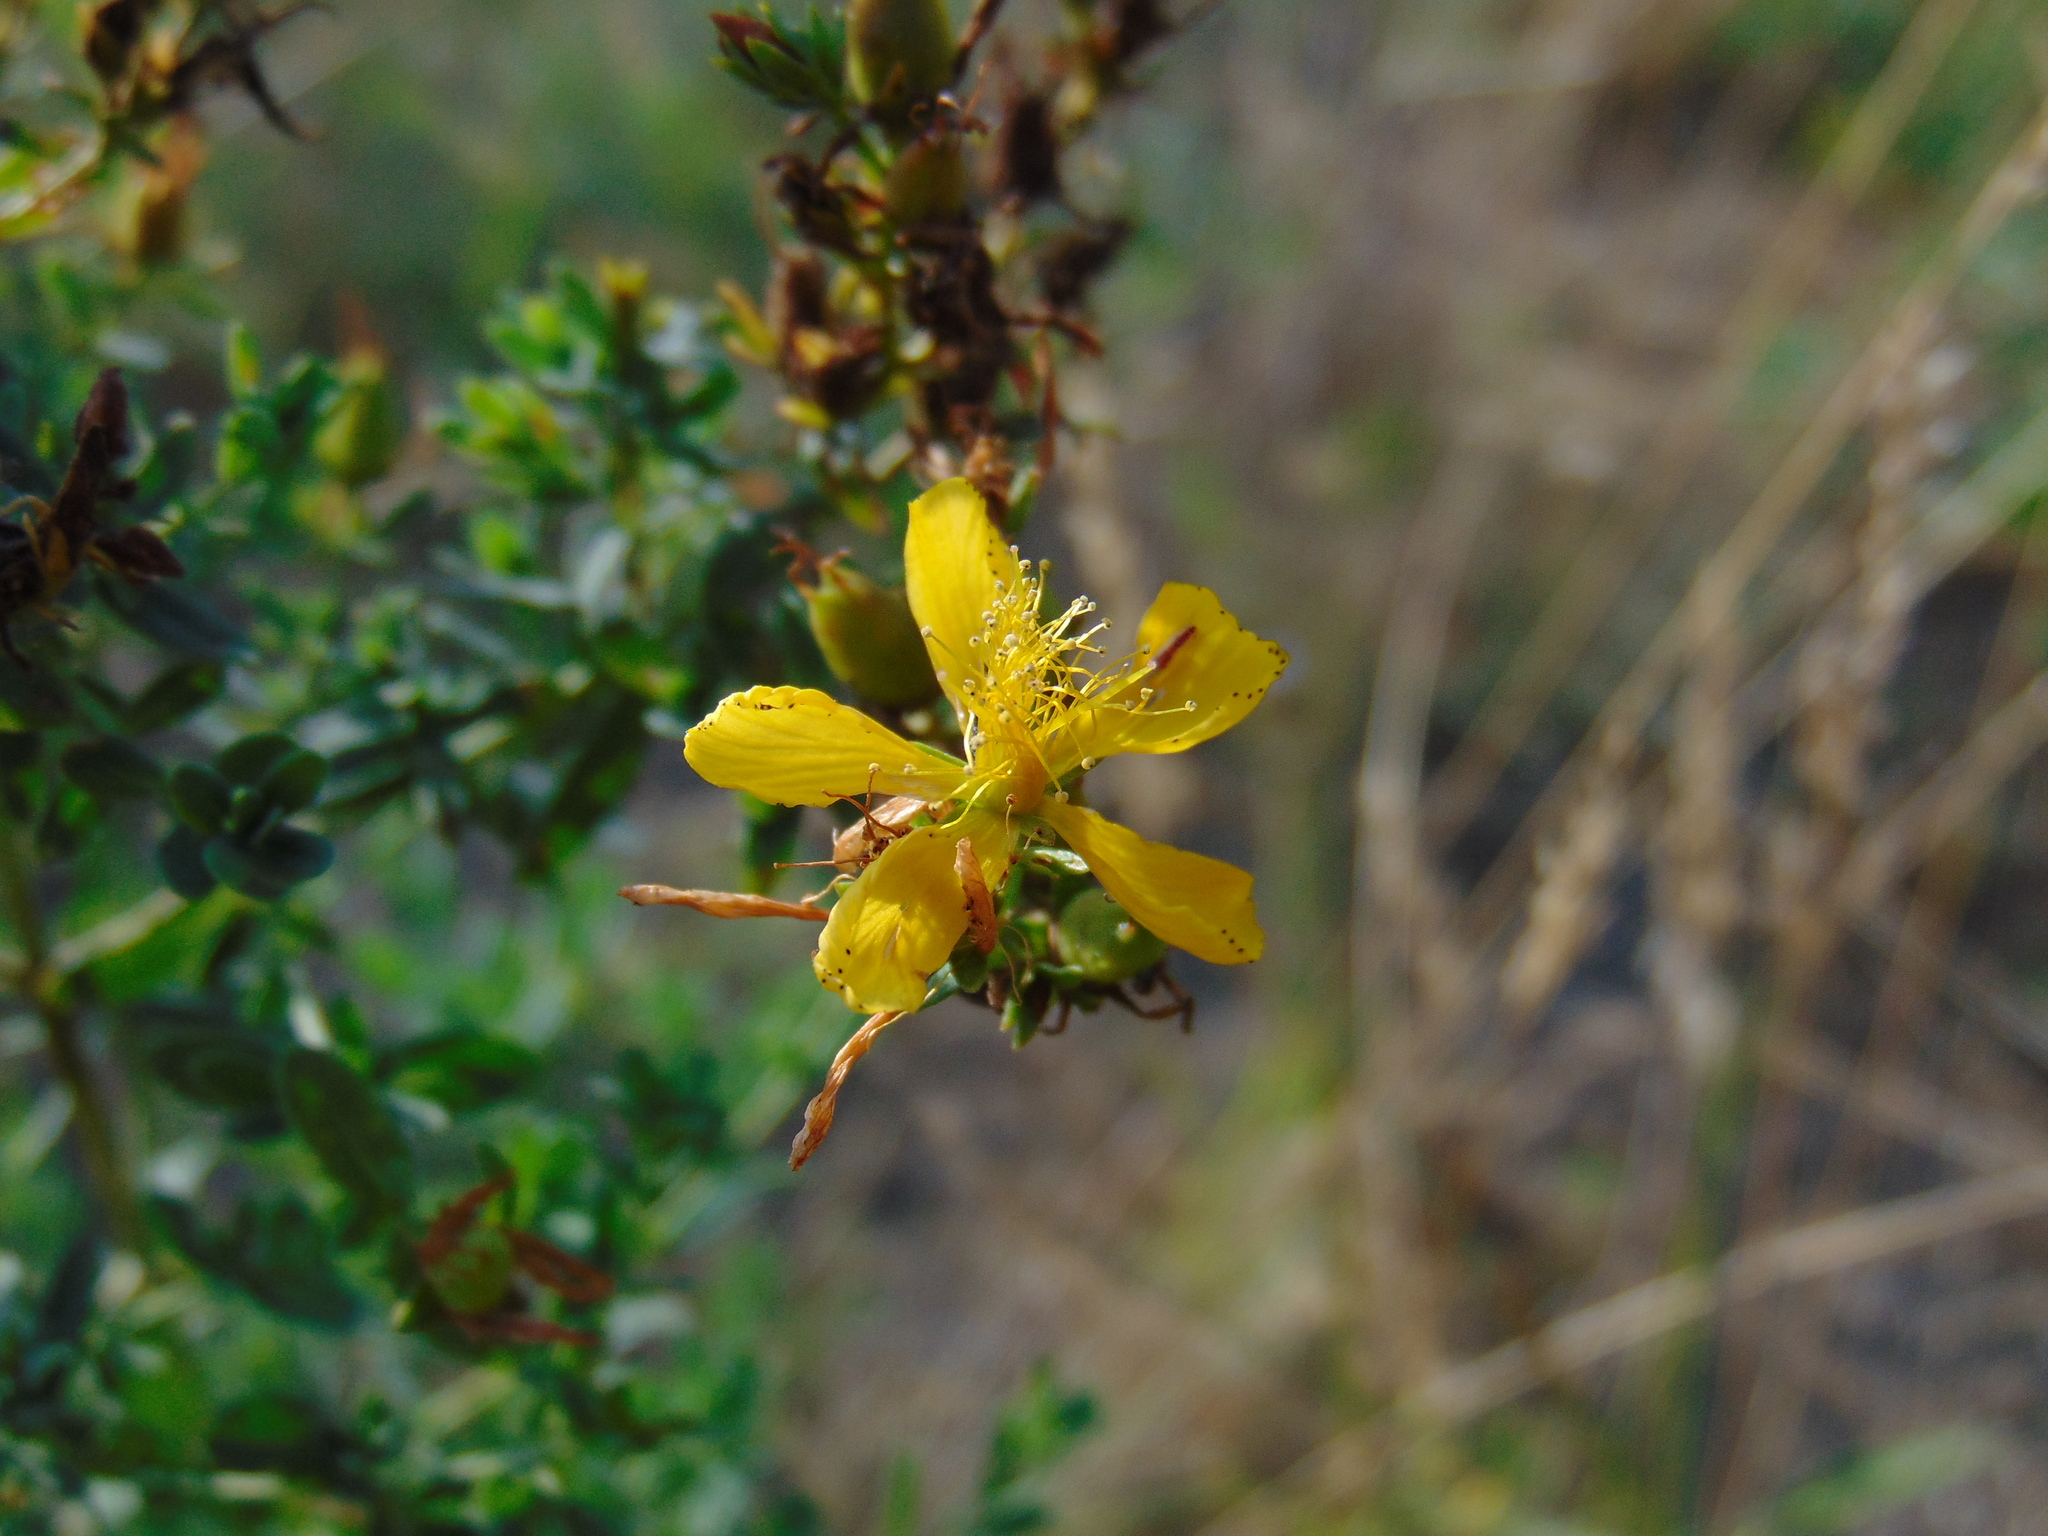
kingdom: Plantae
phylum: Tracheophyta
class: Magnoliopsida
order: Malpighiales
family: Hypericaceae
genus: Hypericum
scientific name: Hypericum perforatum
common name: Common st. johnswort
